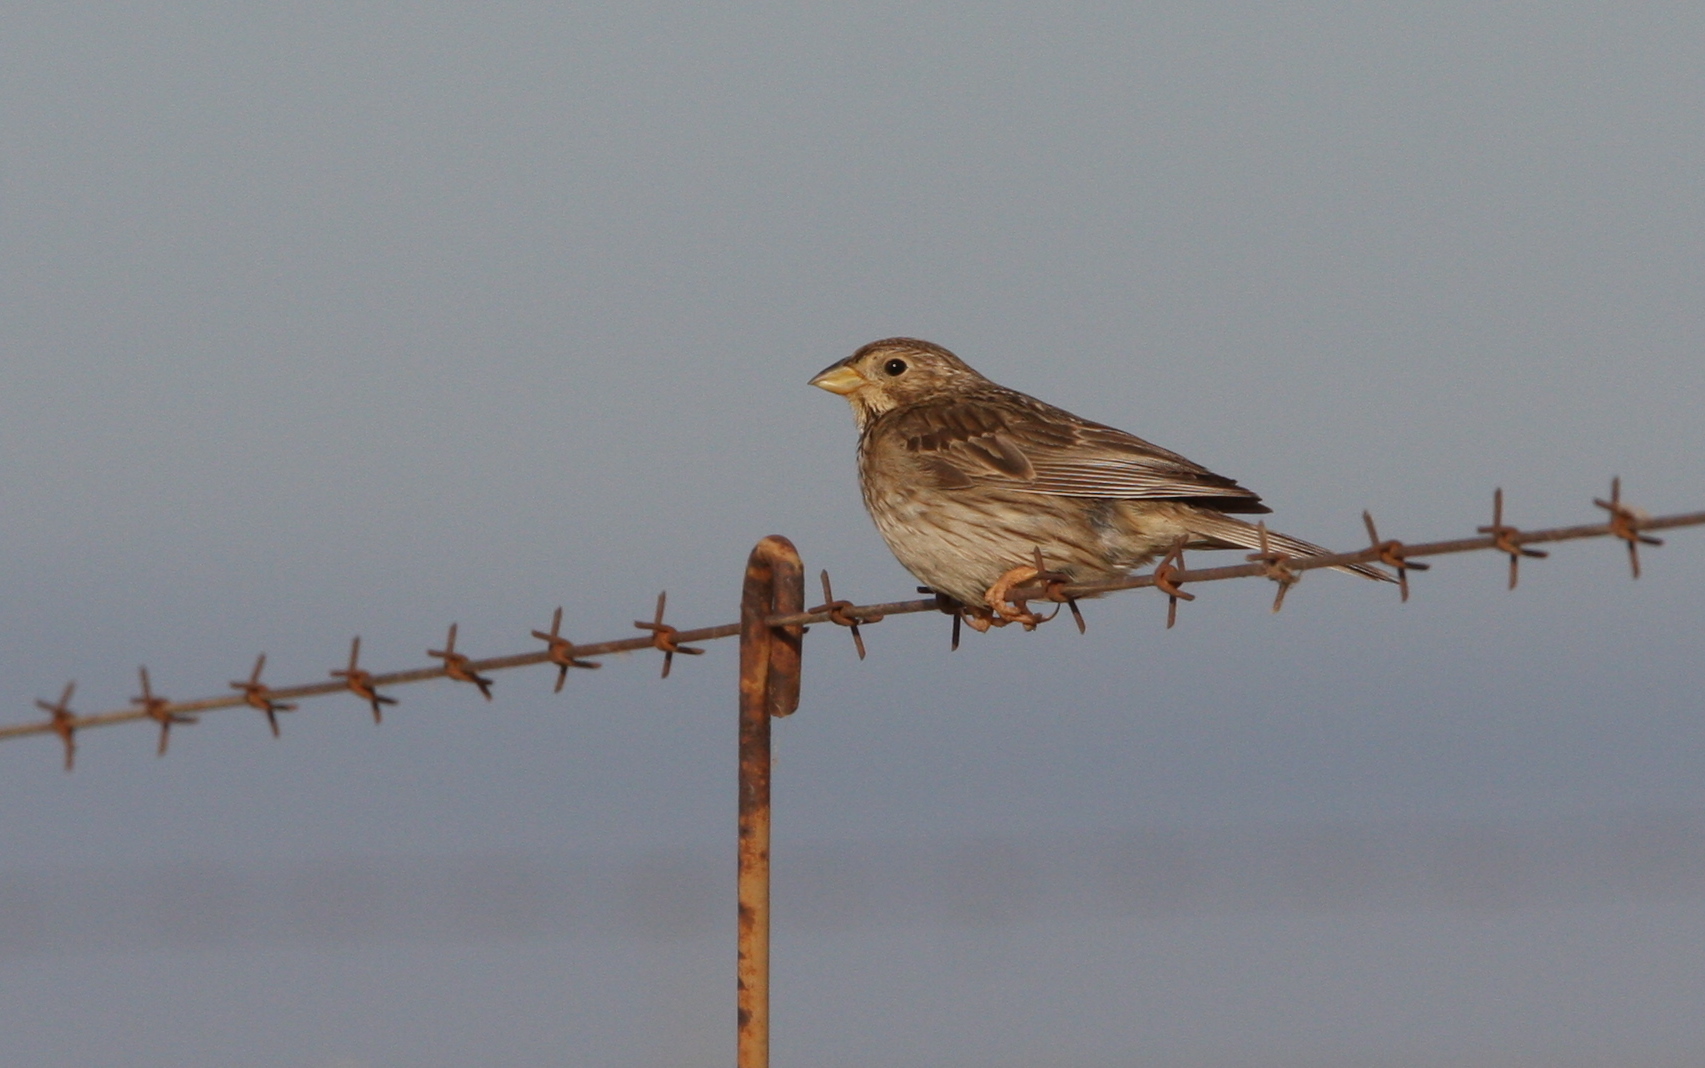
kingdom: Animalia
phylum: Chordata
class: Aves
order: Passeriformes
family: Emberizidae
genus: Emberiza
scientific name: Emberiza calandra
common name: Corn bunting
